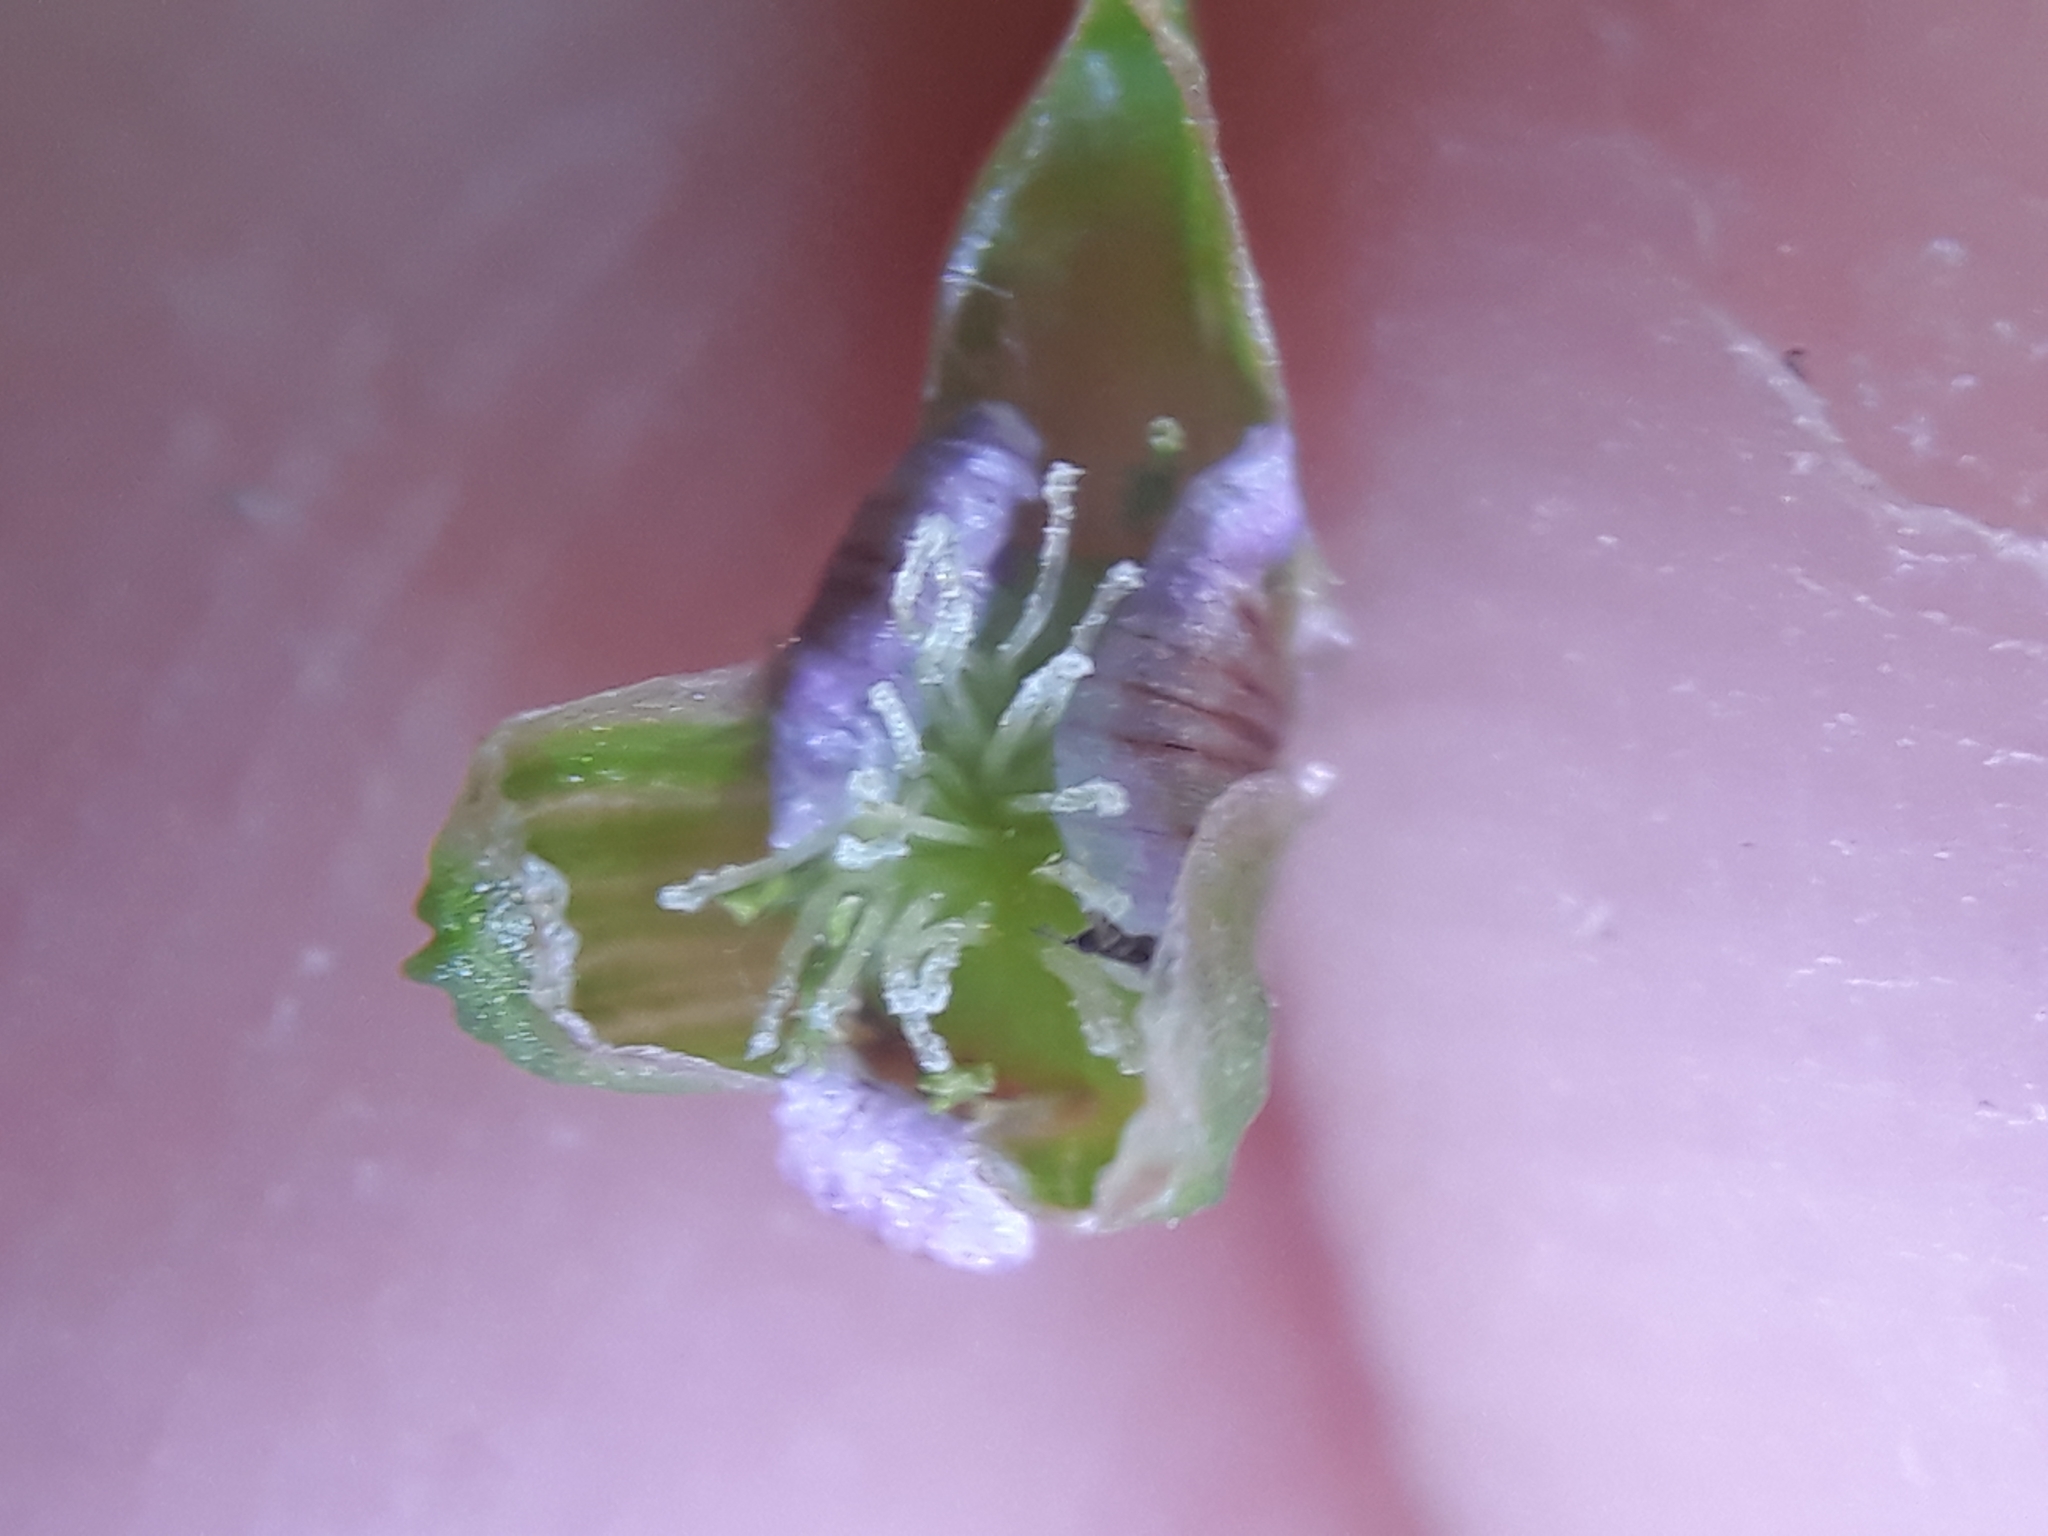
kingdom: Plantae
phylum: Tracheophyta
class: Liliopsida
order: Alismatales
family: Alismataceae
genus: Alisma
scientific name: Alisma plantago-aquatica
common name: Water-plantain
